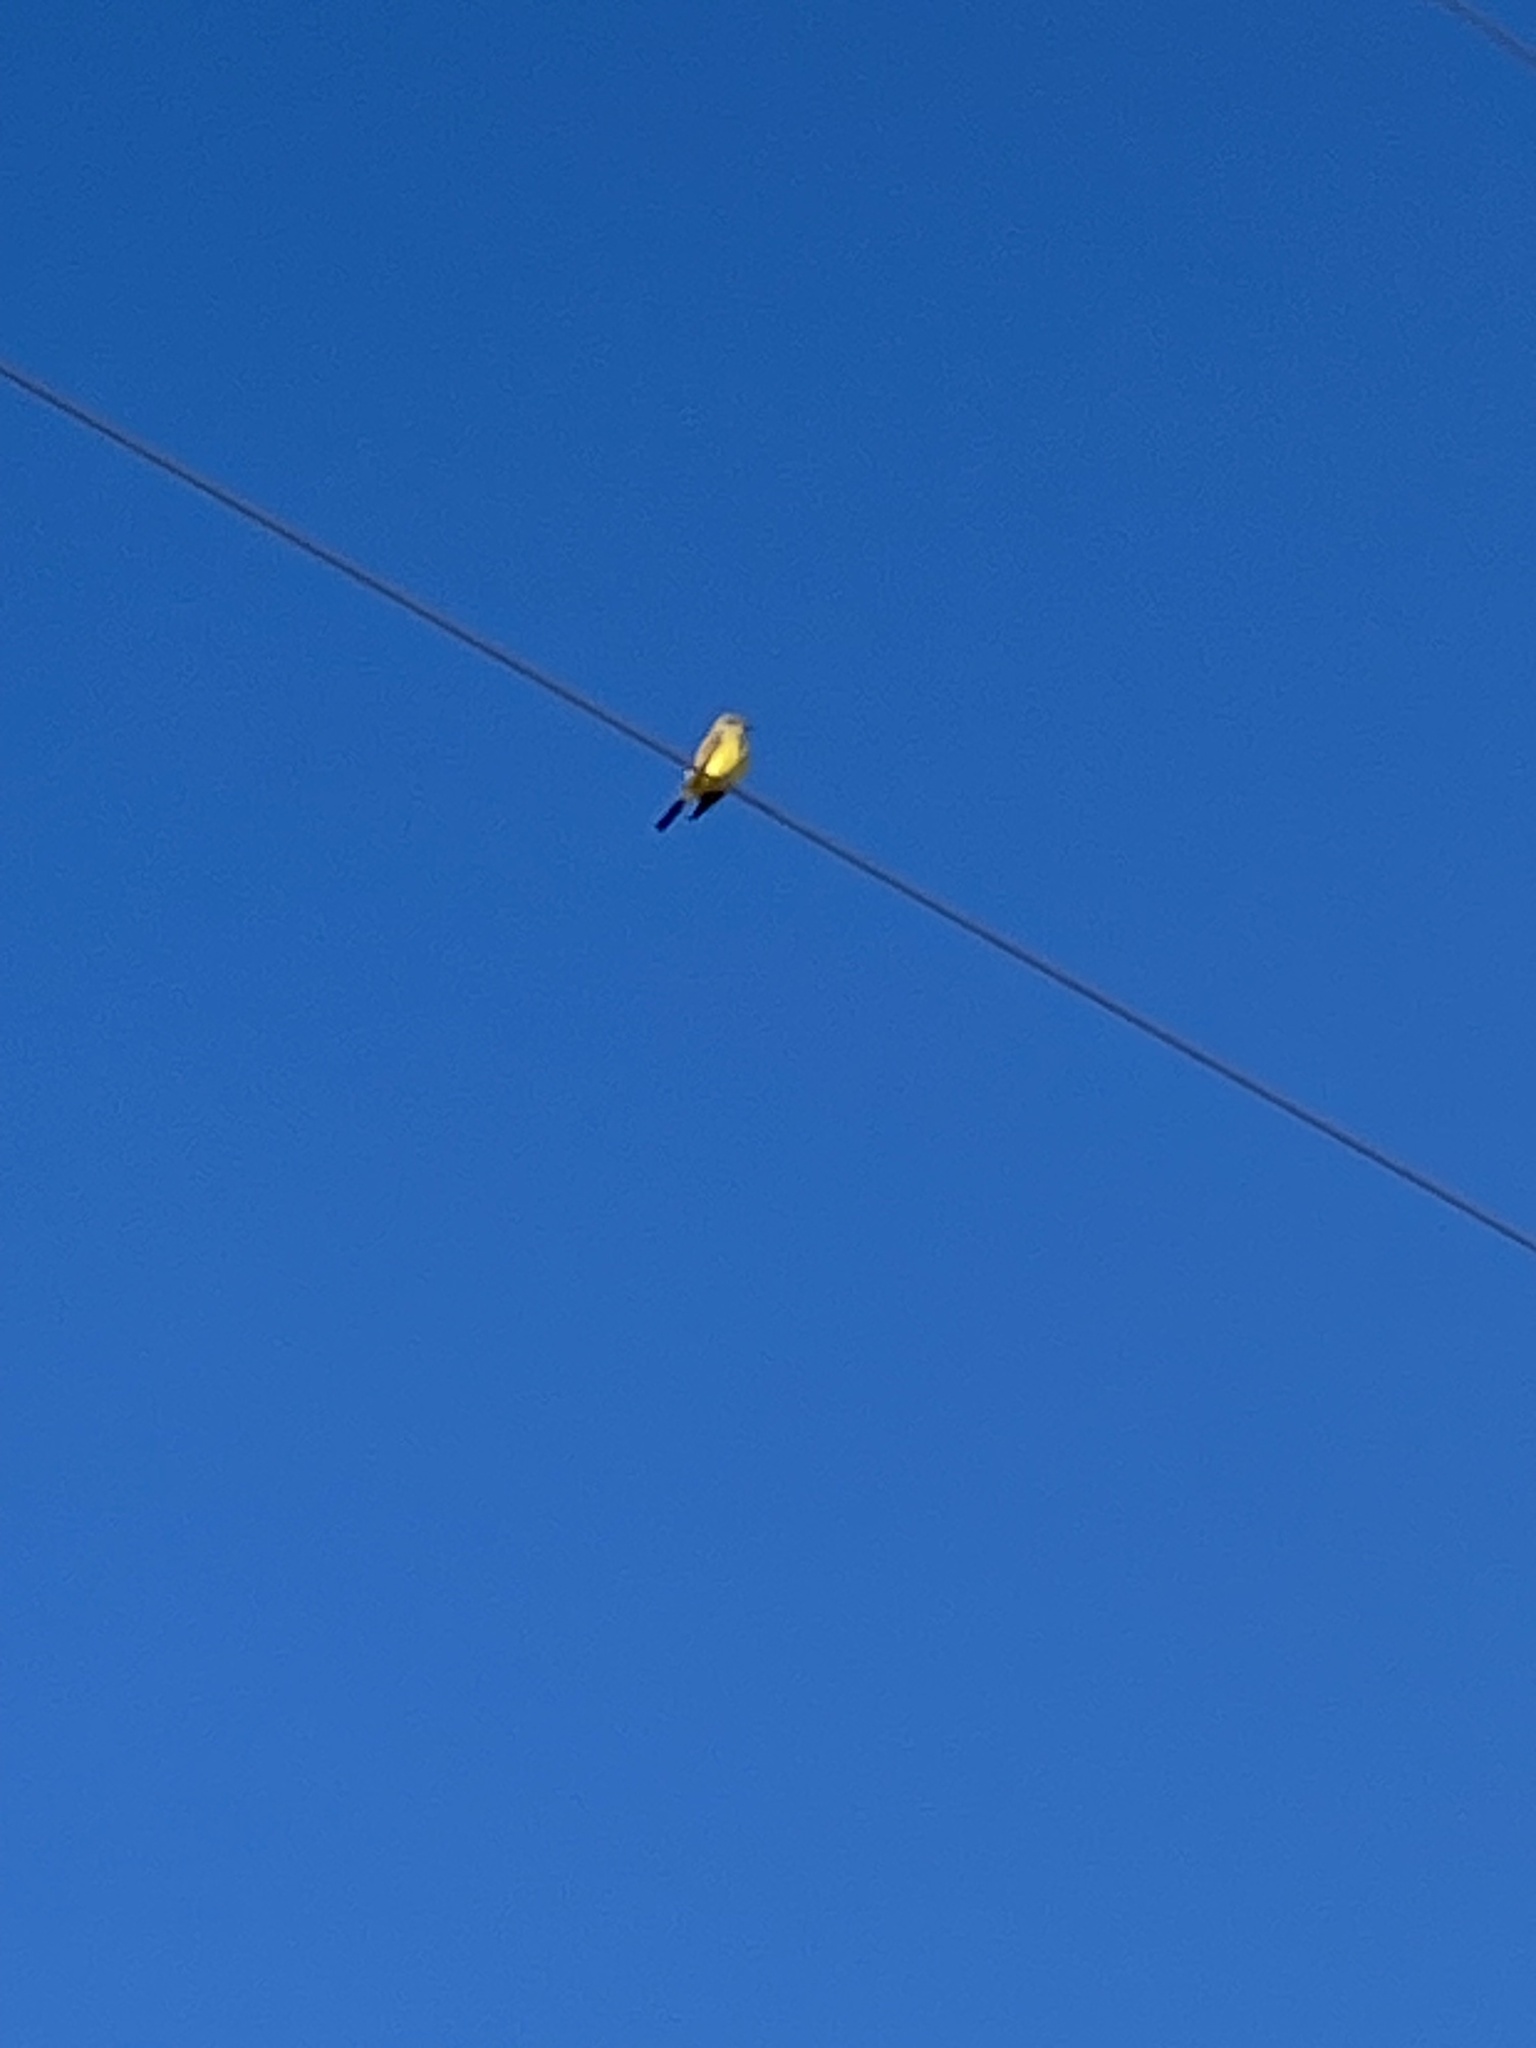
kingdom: Animalia
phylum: Chordata
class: Aves
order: Passeriformes
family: Tyrannidae
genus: Tyrannus
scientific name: Tyrannus verticalis
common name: Western kingbird
